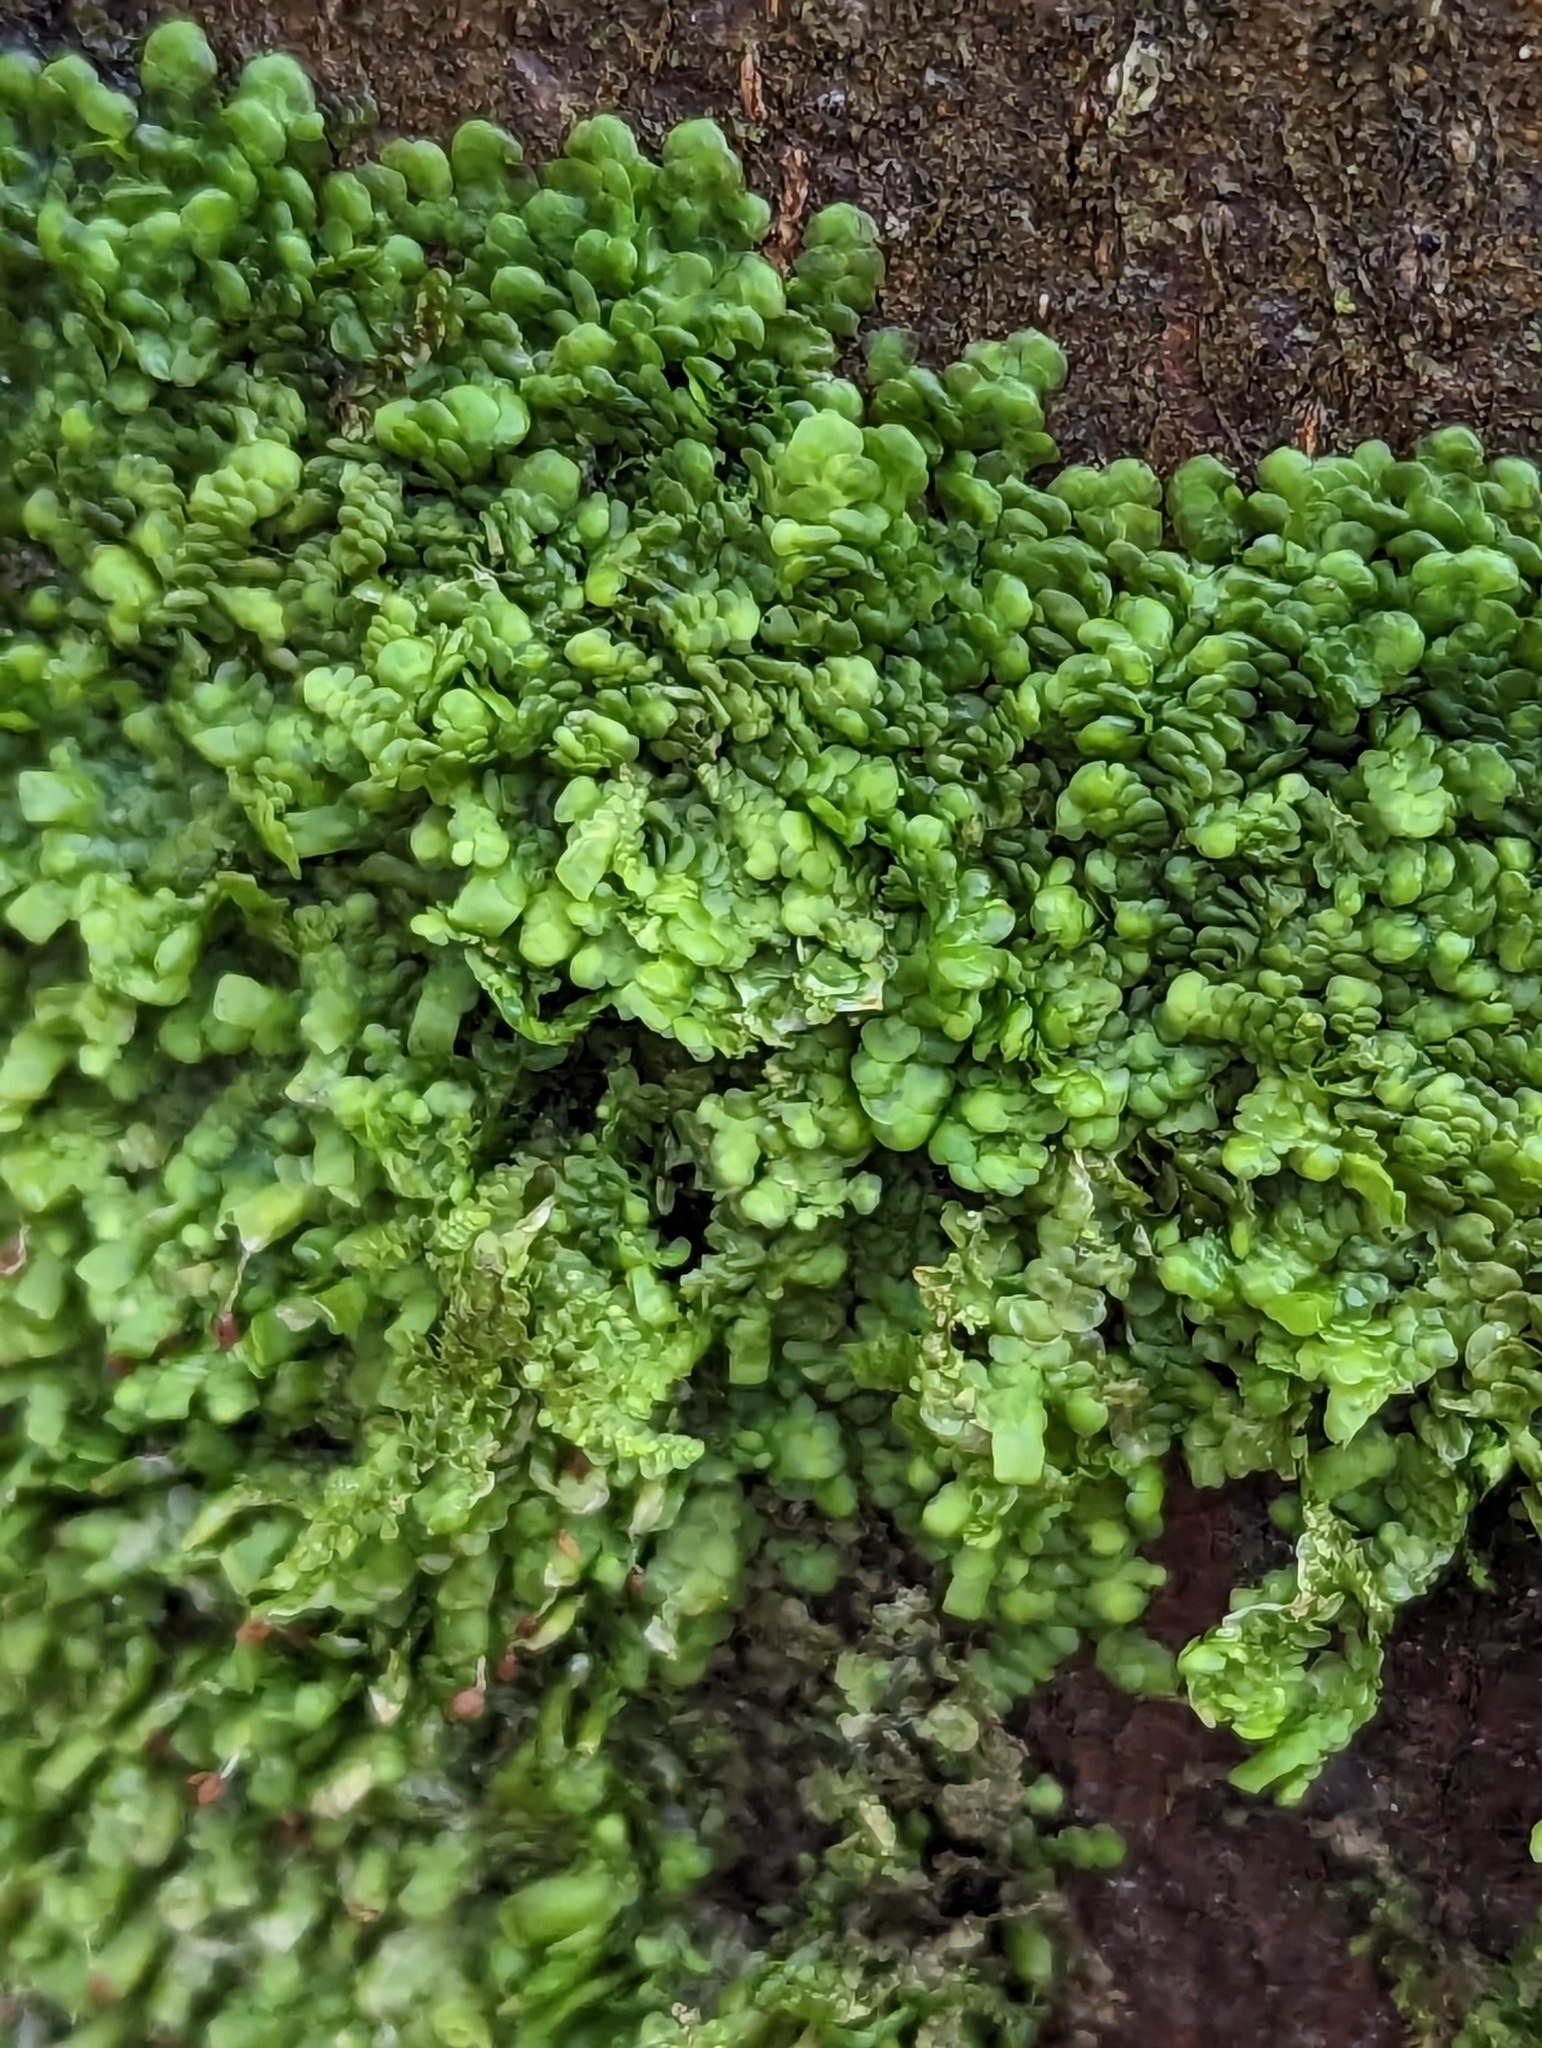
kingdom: Plantae
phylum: Marchantiophyta
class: Jungermanniopsida
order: Porellales
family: Radulaceae
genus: Radula
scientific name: Radula complanata
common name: Flat-leaved scalewort
